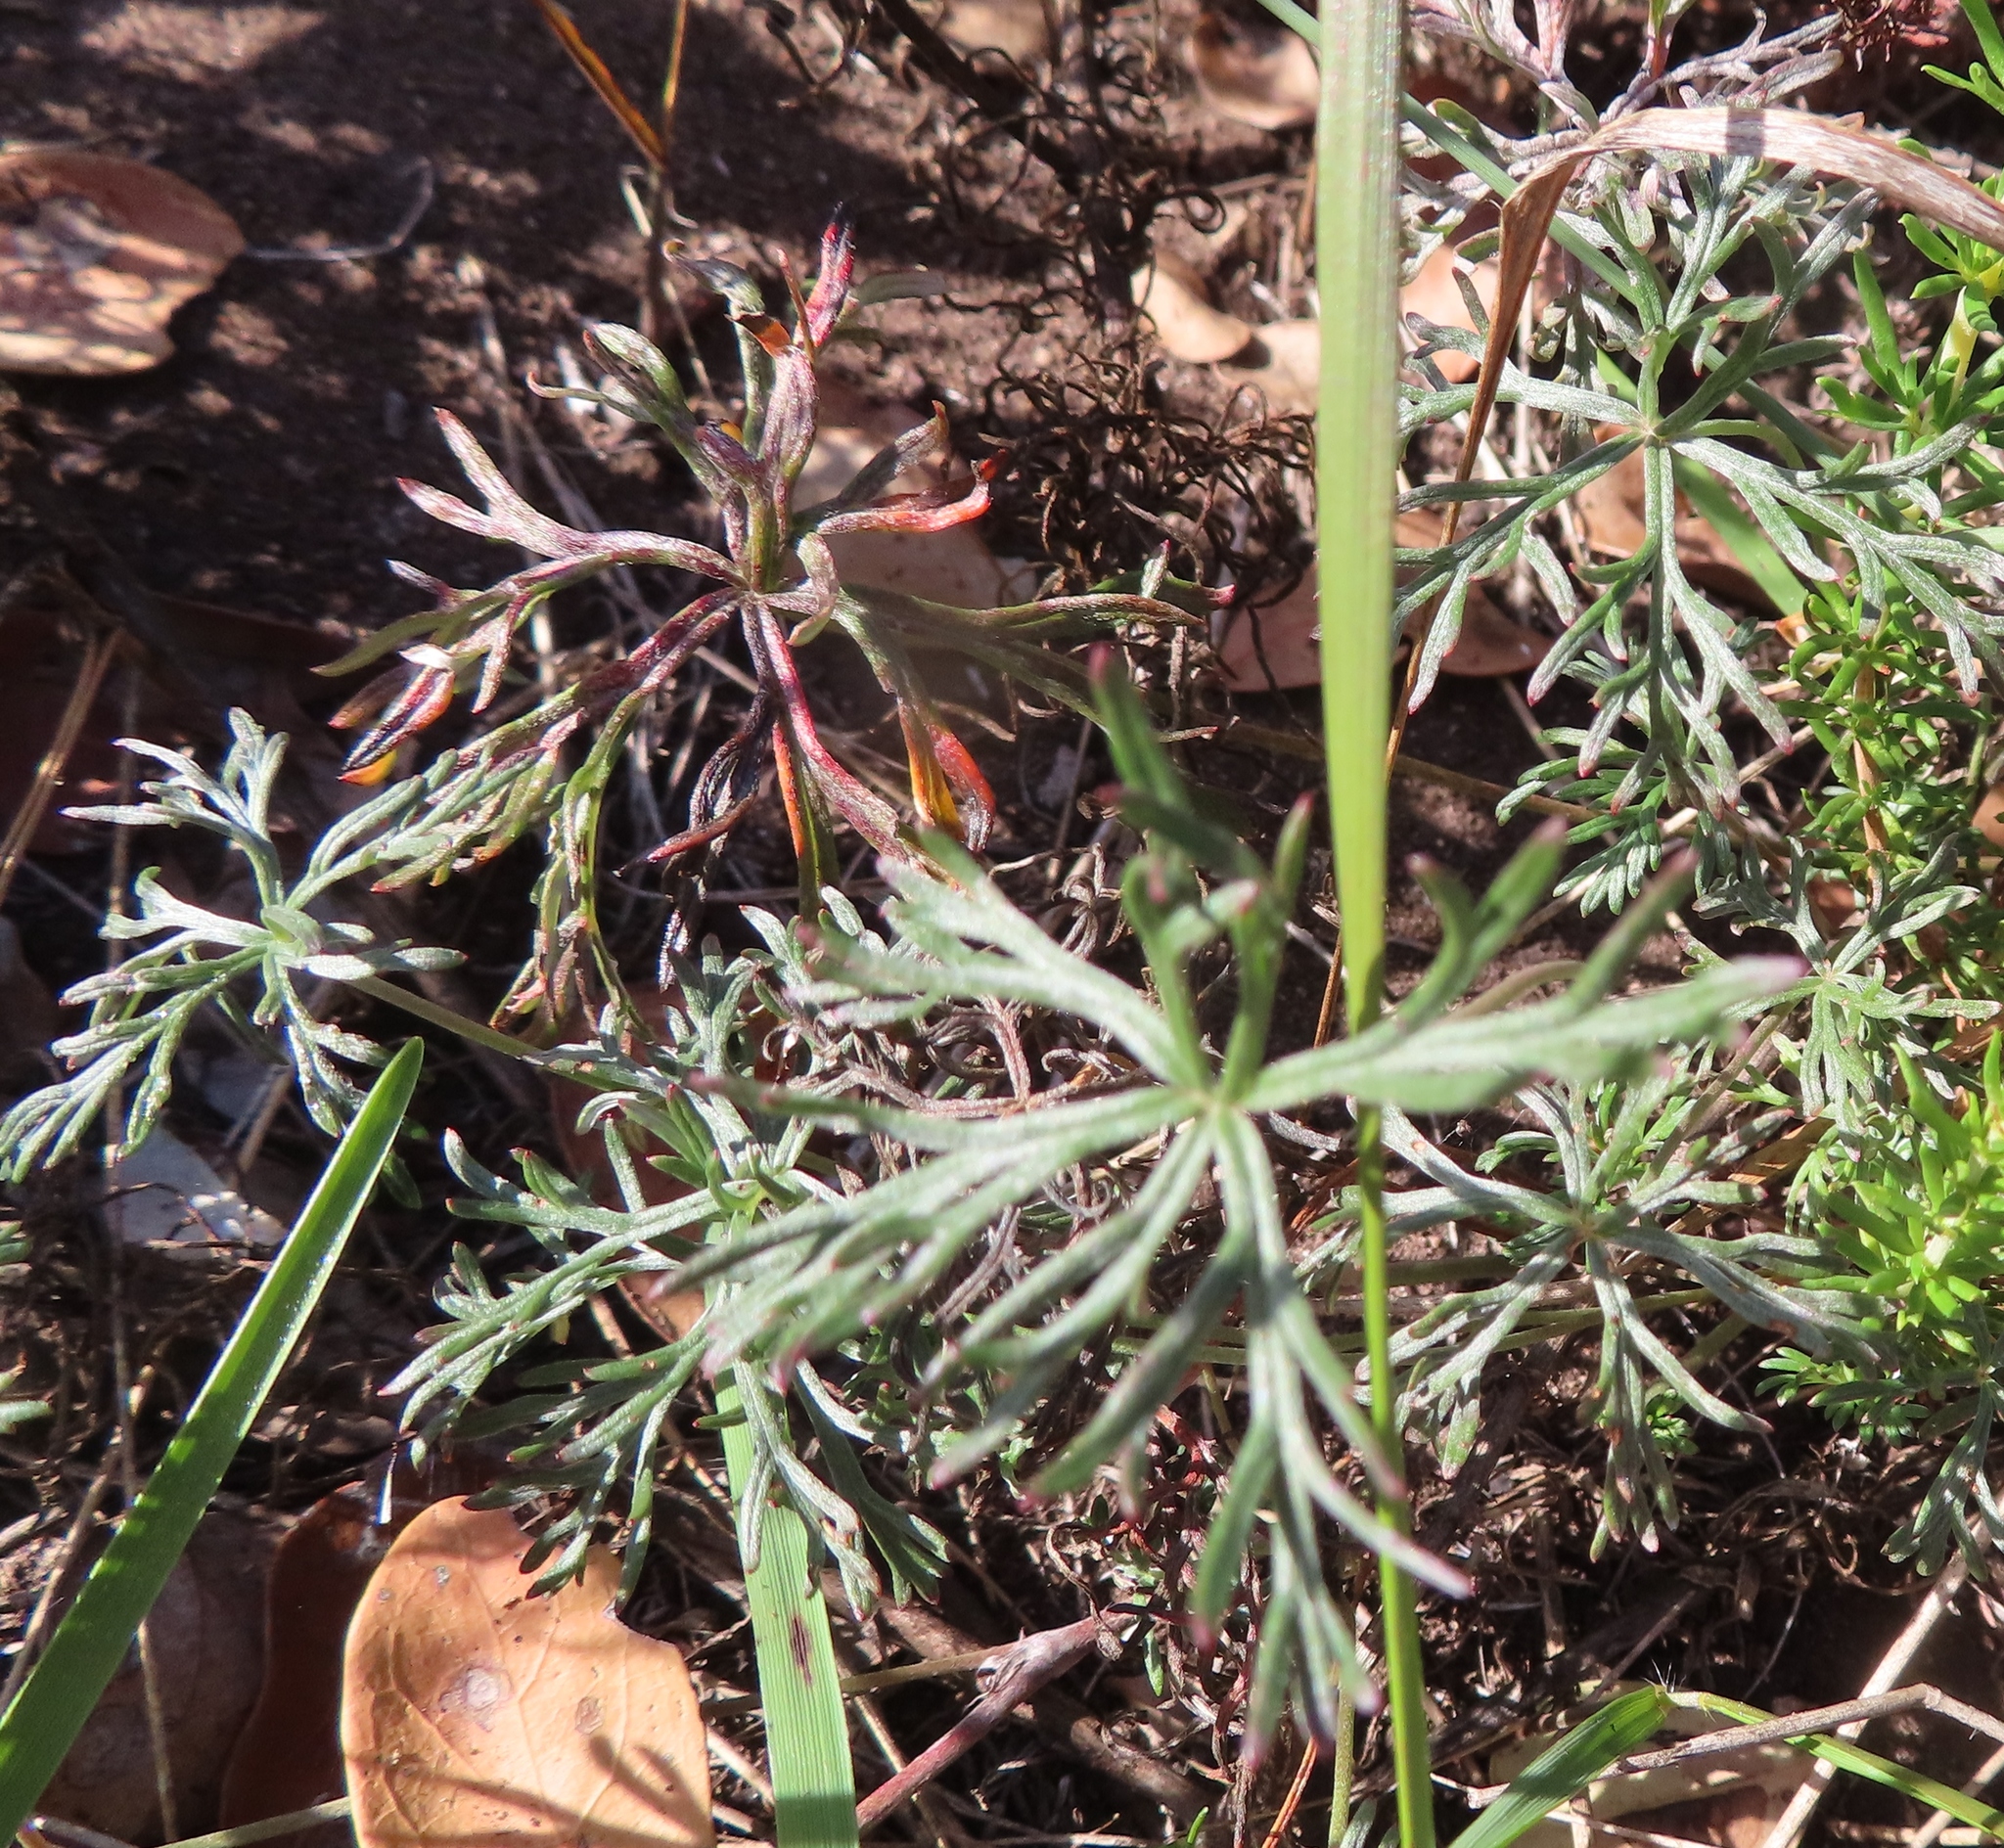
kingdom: Plantae
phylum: Tracheophyta
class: Magnoliopsida
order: Geraniales
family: Geraniaceae
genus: Geranium
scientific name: Geranium incanum
